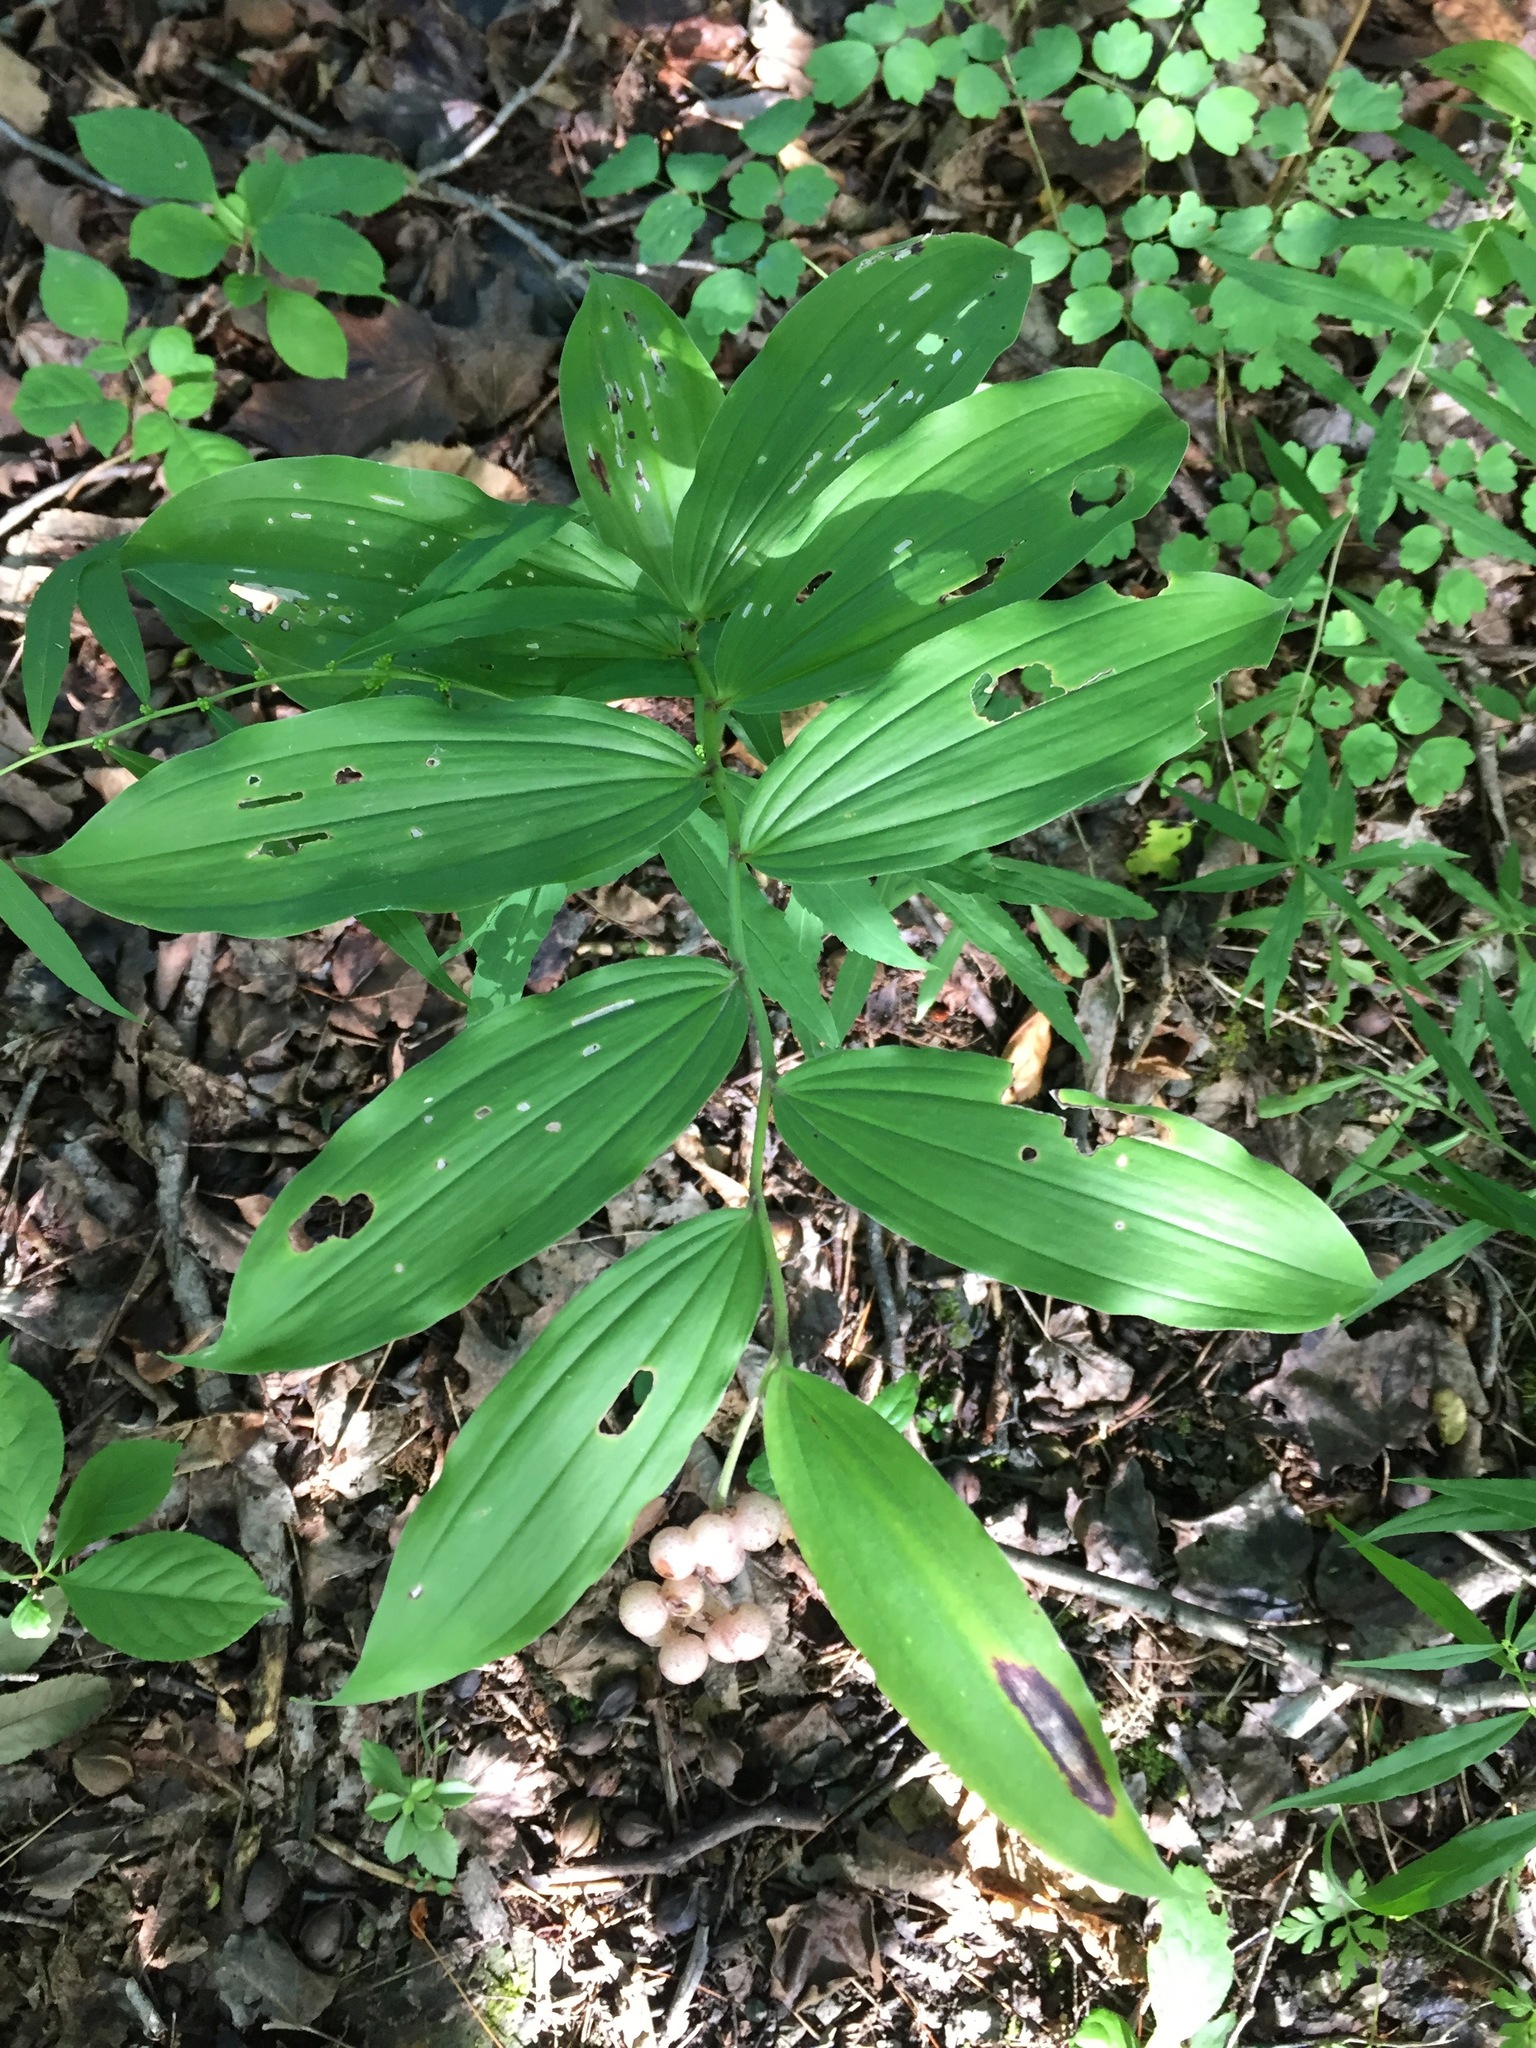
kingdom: Plantae
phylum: Tracheophyta
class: Liliopsida
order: Asparagales
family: Asparagaceae
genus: Maianthemum
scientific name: Maianthemum racemosum
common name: False spikenard
